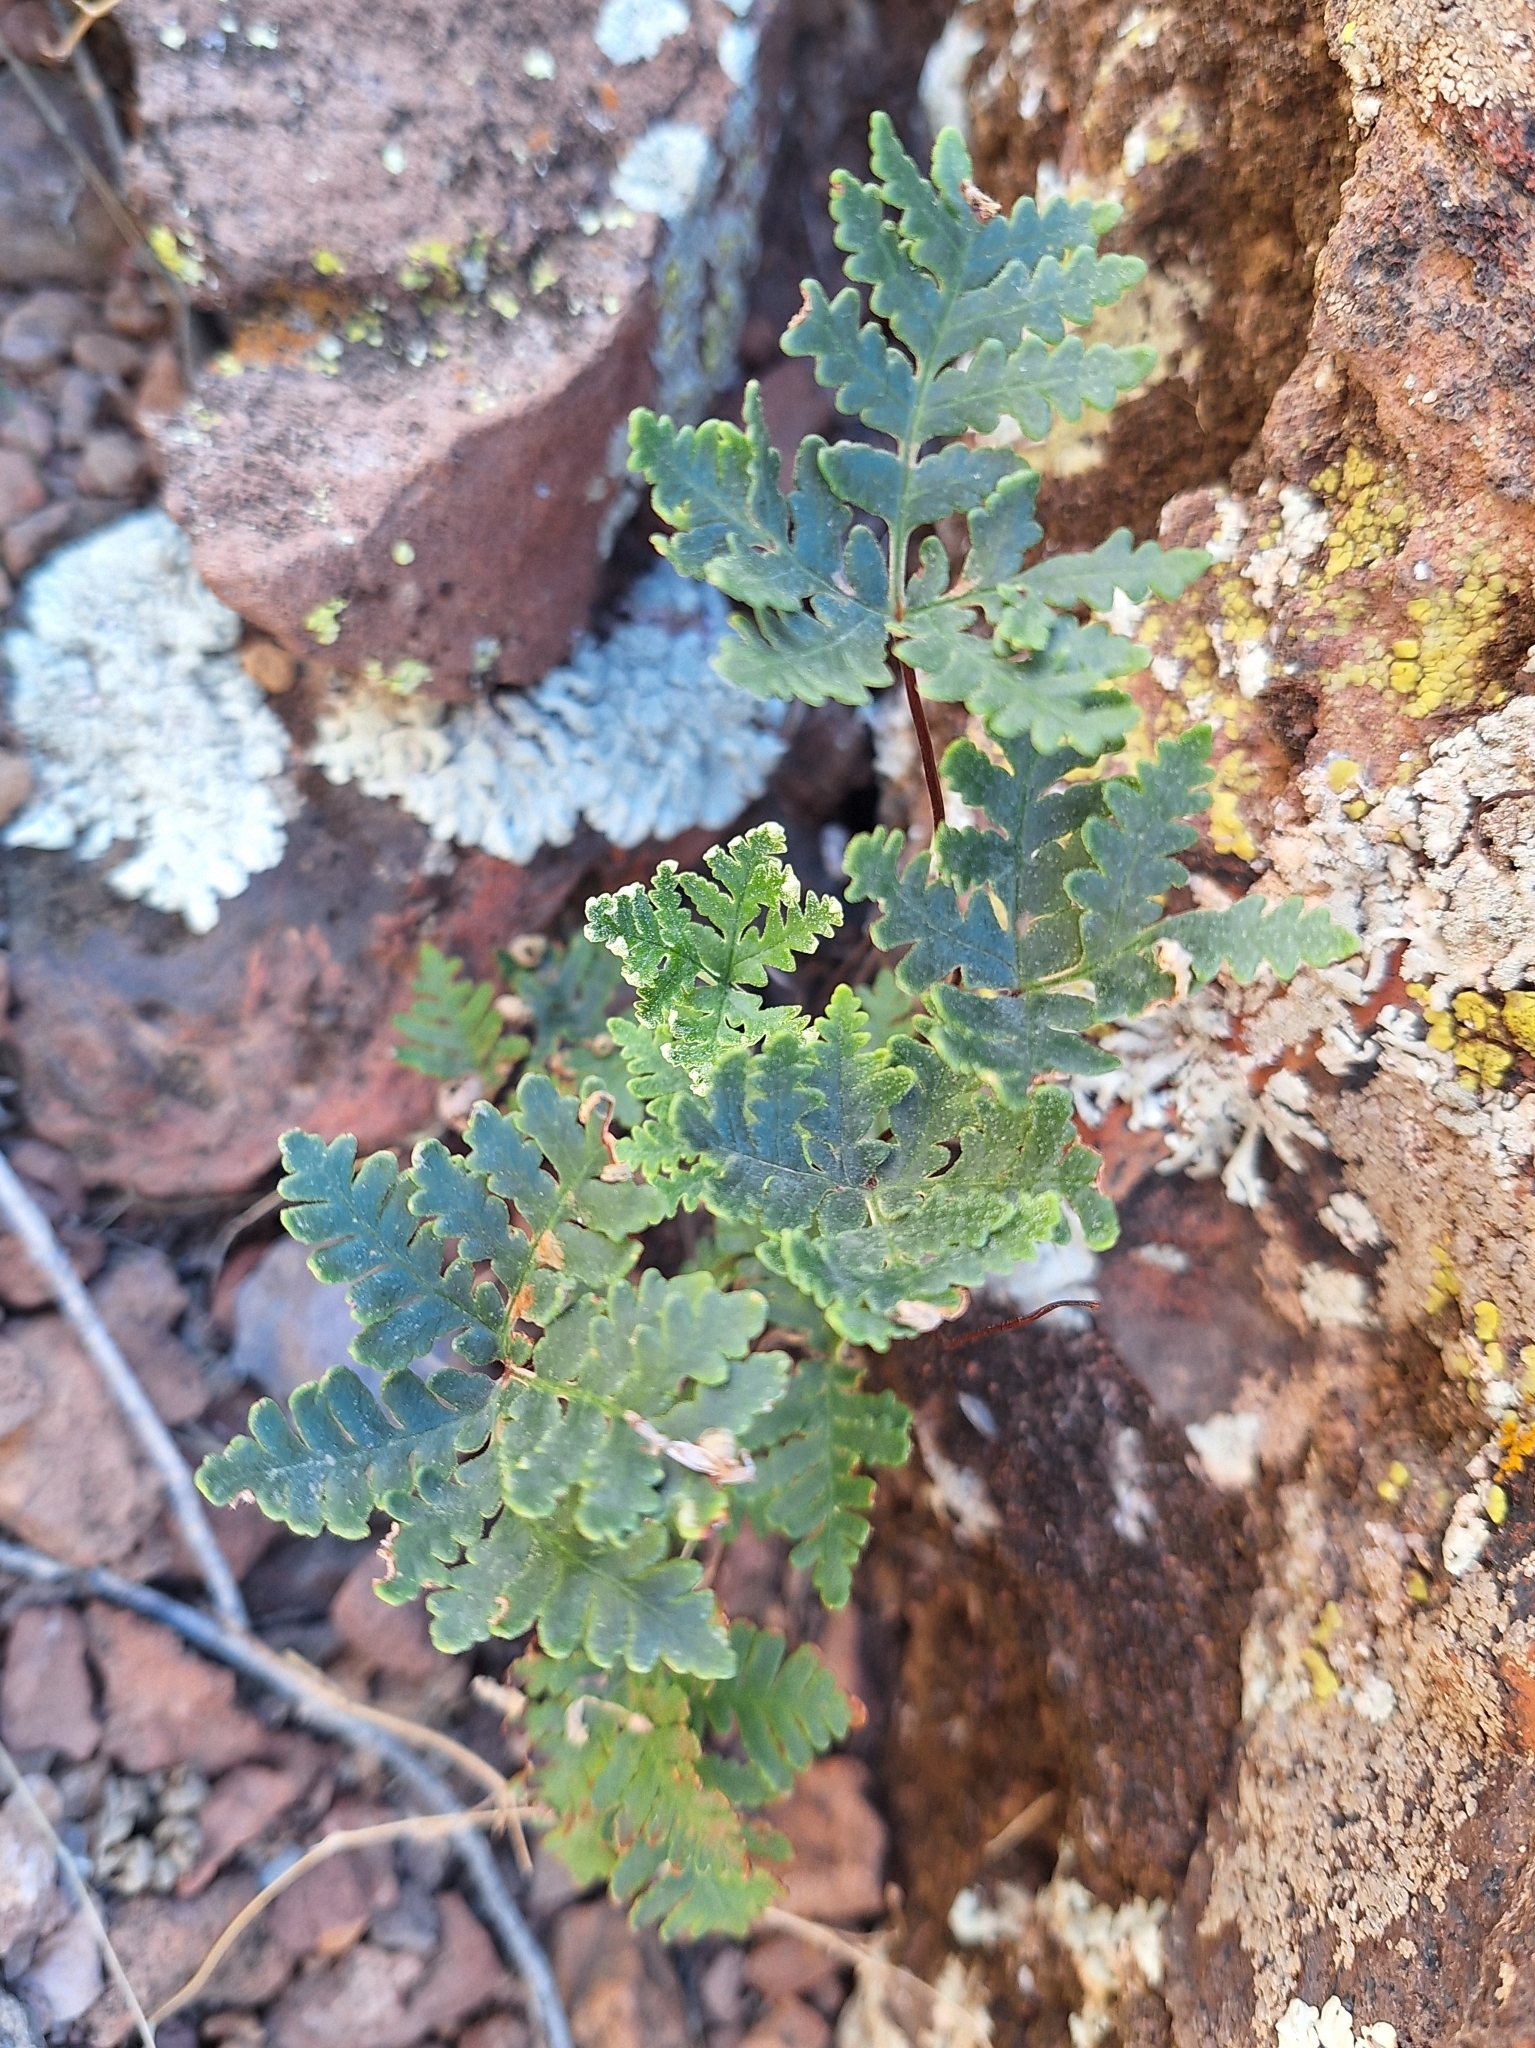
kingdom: Plantae
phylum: Tracheophyta
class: Polypodiopsida
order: Polypodiales
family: Pteridaceae
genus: Notholaena
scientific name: Notholaena californica
